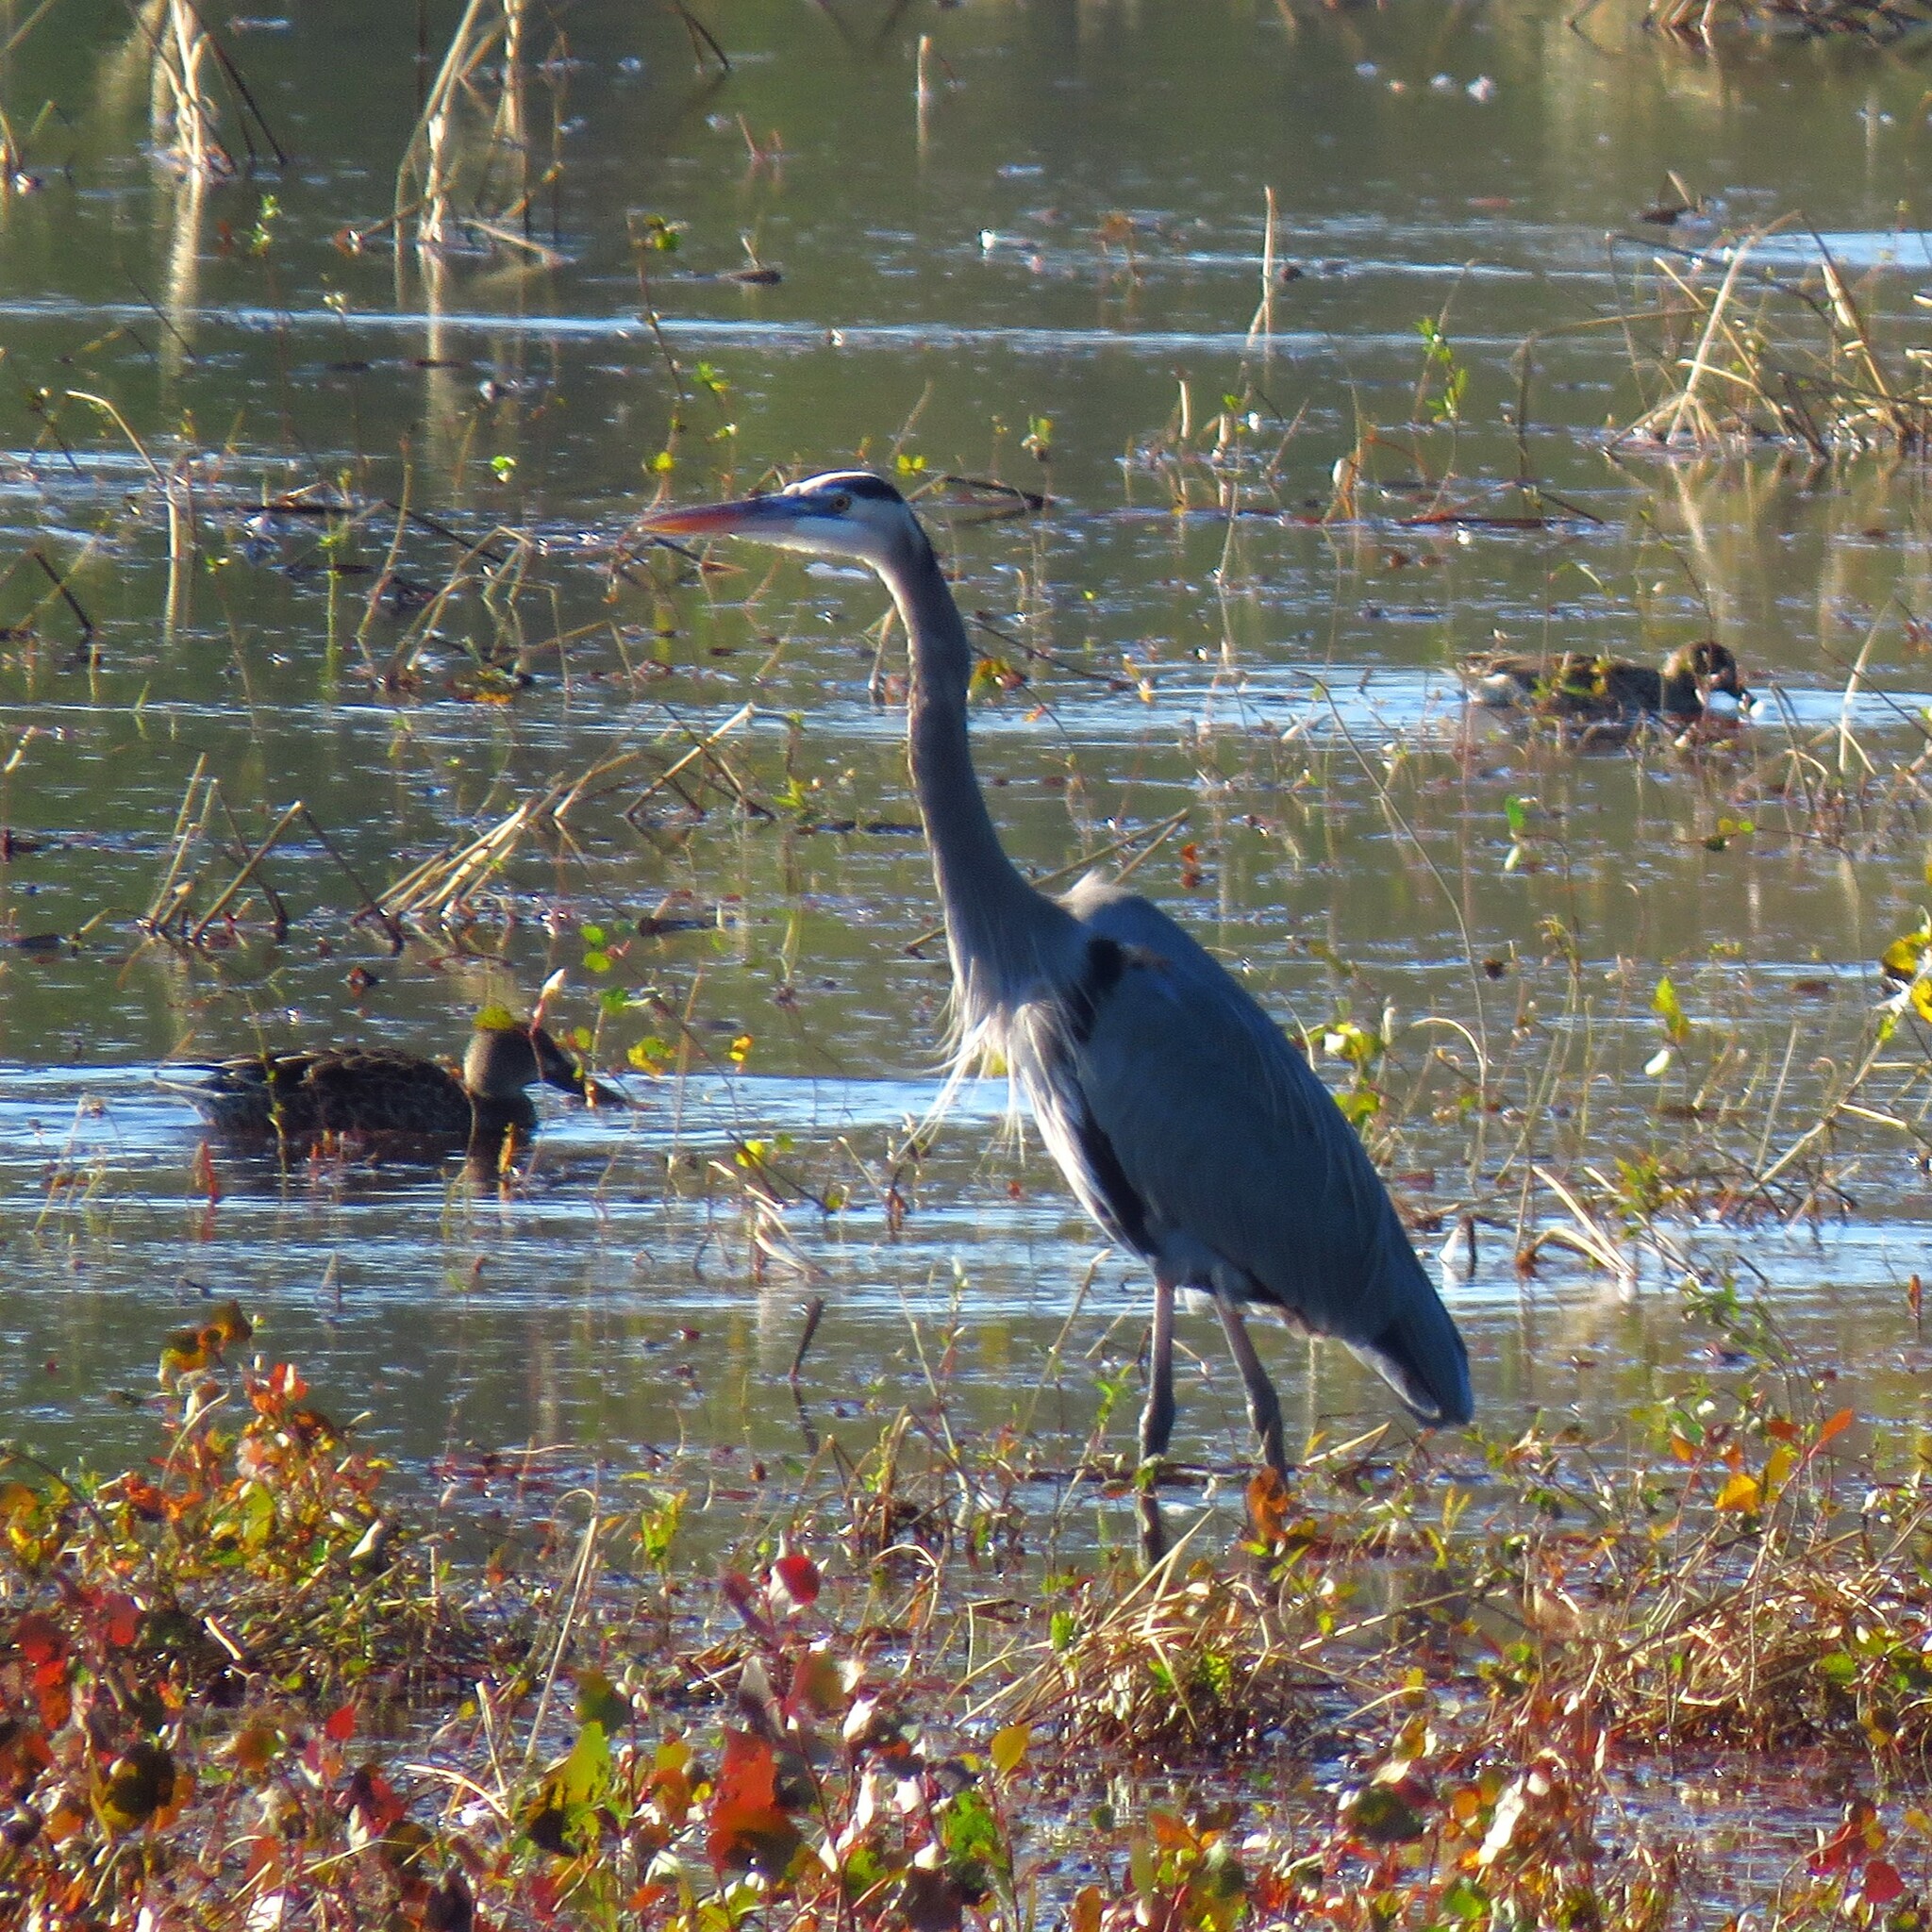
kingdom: Animalia
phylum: Chordata
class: Aves
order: Pelecaniformes
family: Ardeidae
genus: Ardea
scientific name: Ardea herodias
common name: Great blue heron
